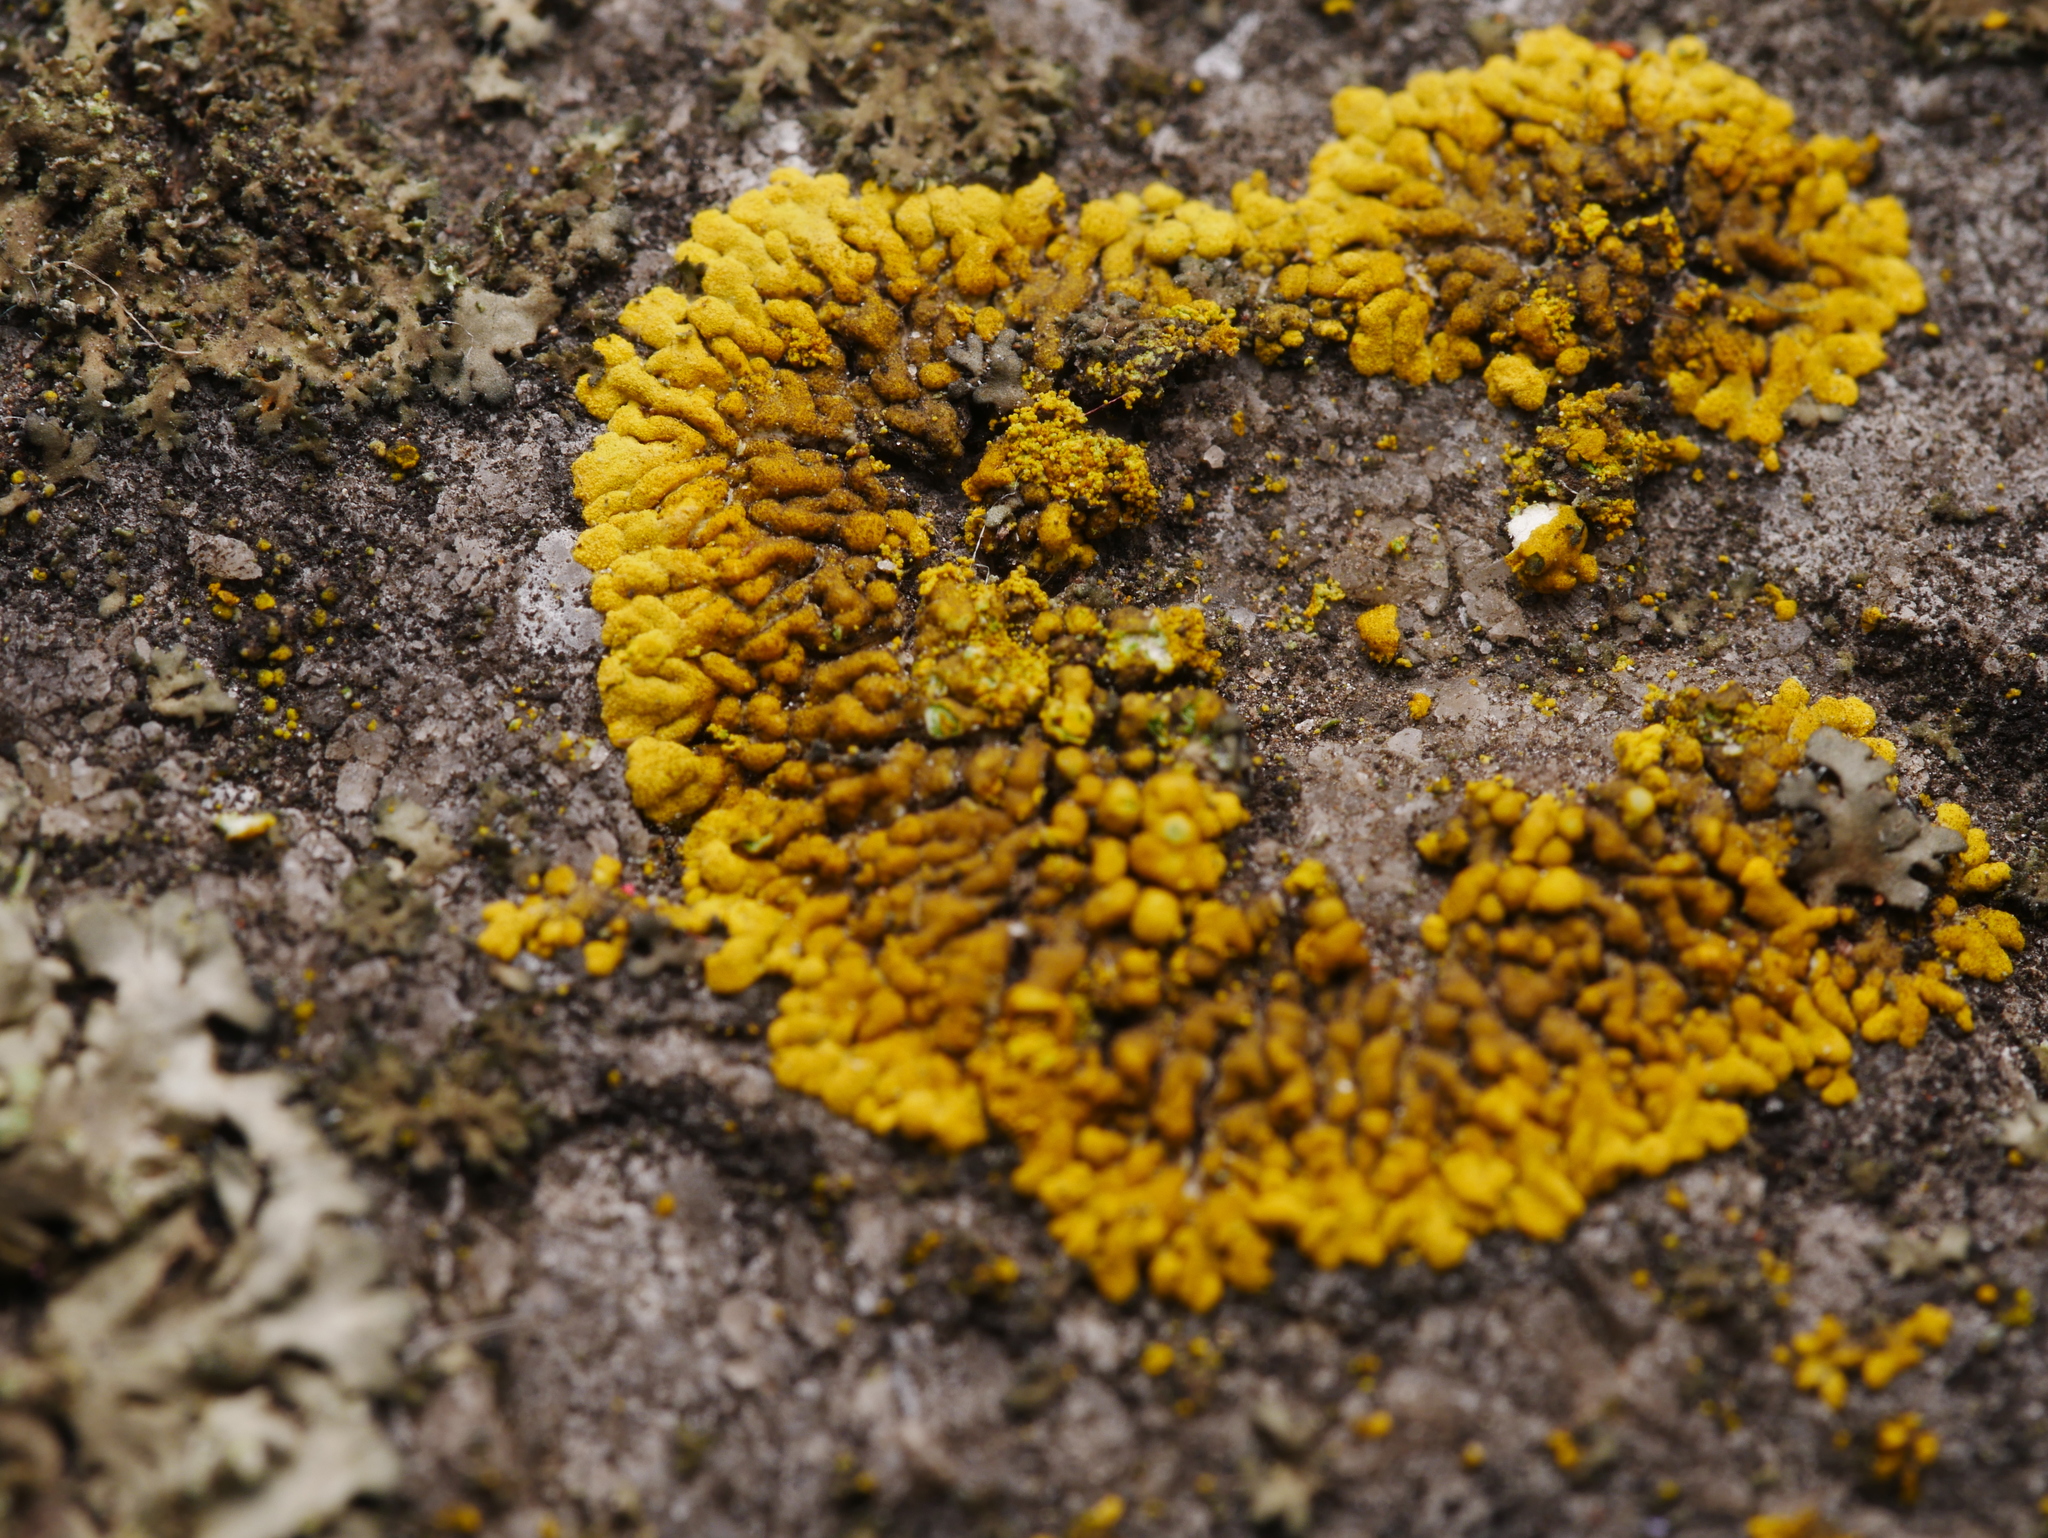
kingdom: Fungi
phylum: Ascomycota
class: Lecanoromycetes
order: Teloschistales
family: Teloschistaceae
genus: Calogaya
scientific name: Calogaya decipiens
